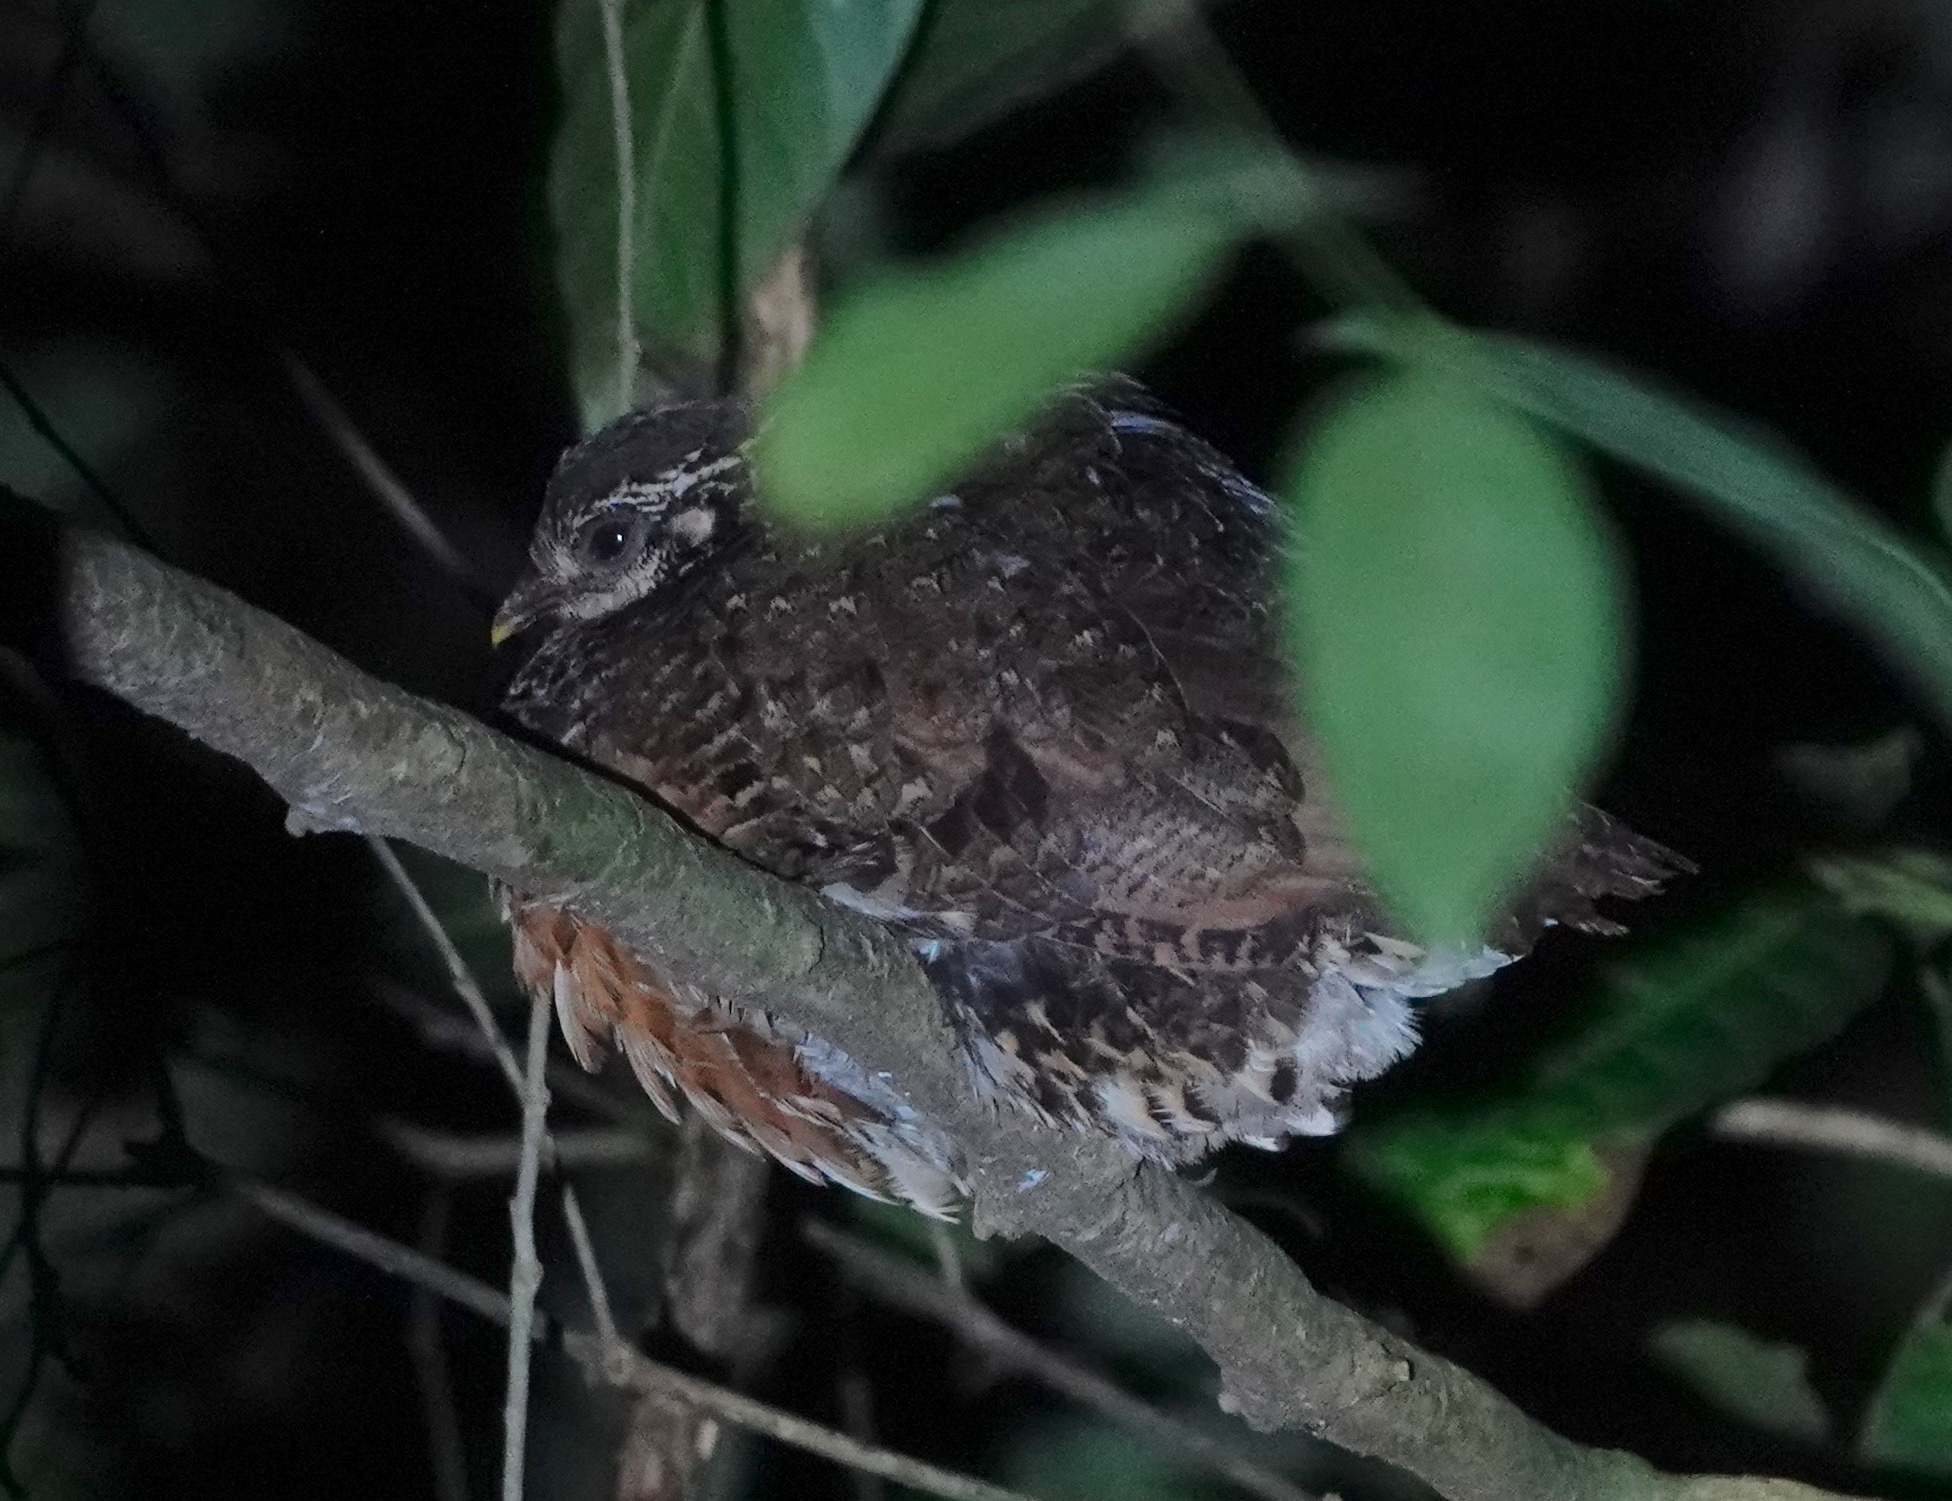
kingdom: Animalia
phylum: Chordata
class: Aves
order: Galliformes
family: Phasianidae
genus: Tropicoperdix
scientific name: Tropicoperdix charltonii
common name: Chestnut-necklaced partridge
